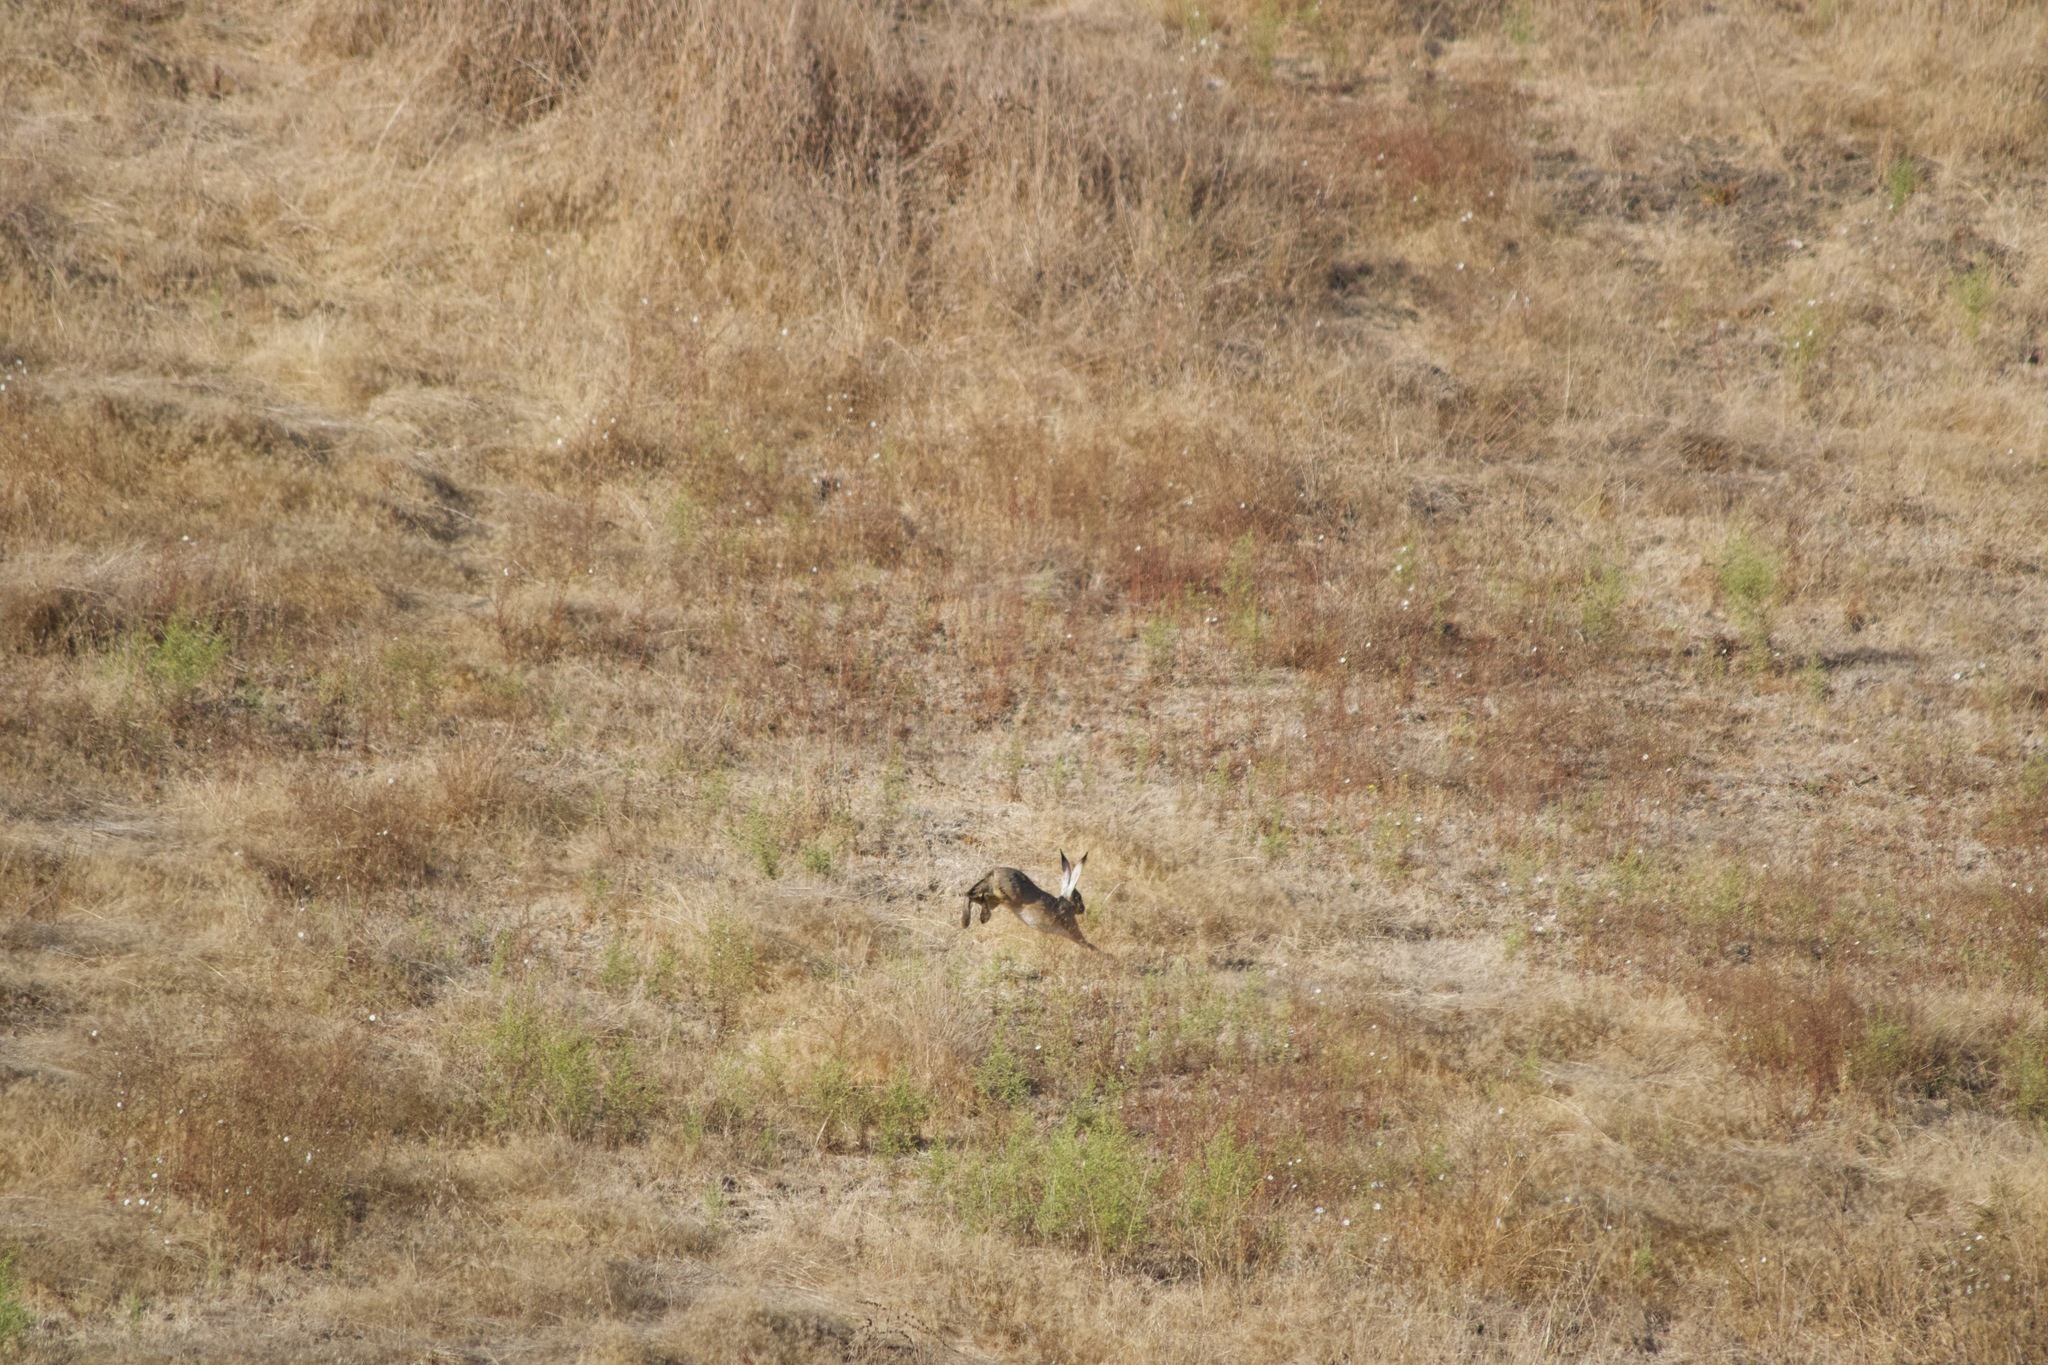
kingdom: Animalia
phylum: Chordata
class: Mammalia
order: Lagomorpha
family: Leporidae
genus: Lepus
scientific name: Lepus californicus
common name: Black-tailed jackrabbit
